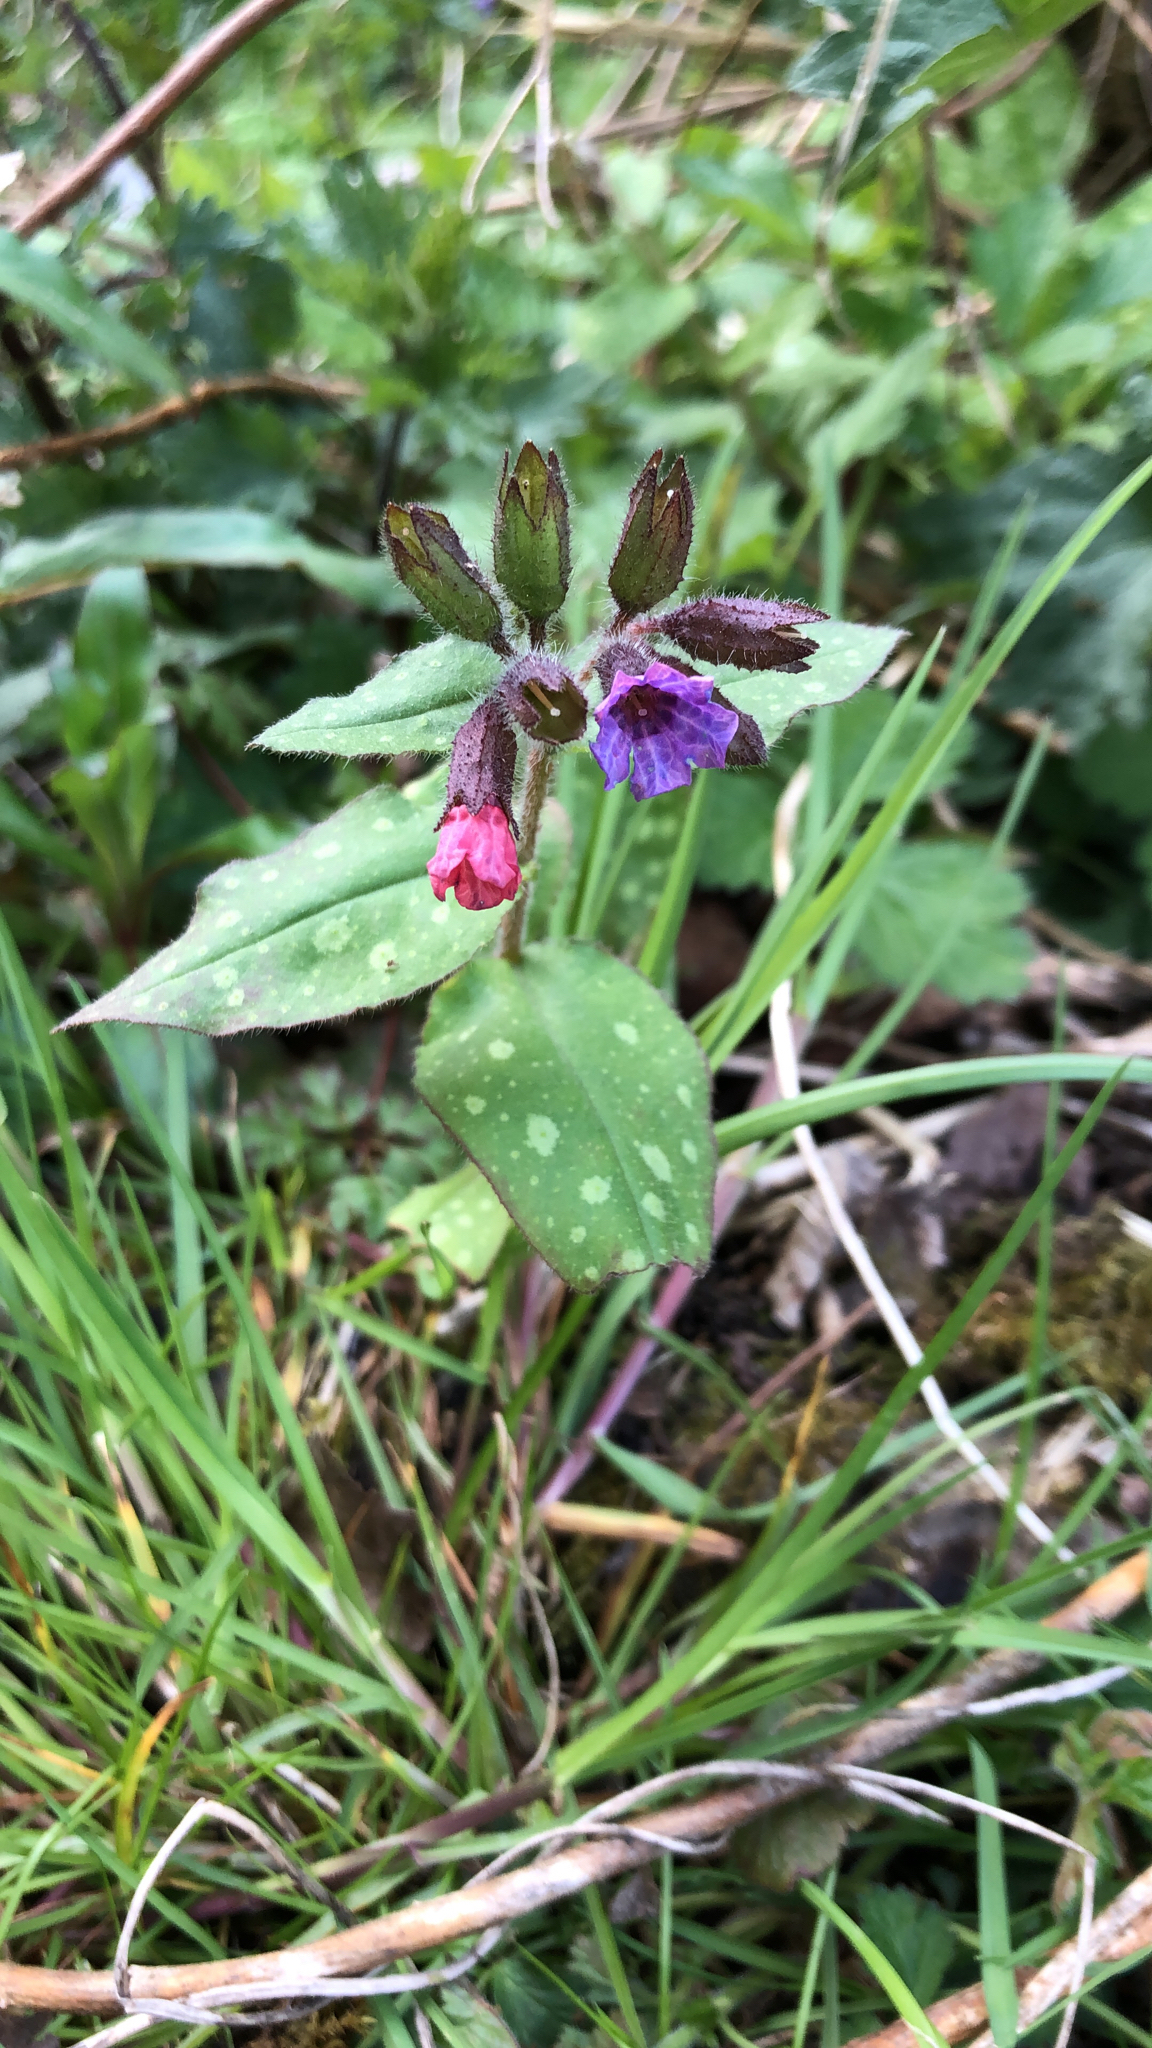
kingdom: Plantae
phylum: Tracheophyta
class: Magnoliopsida
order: Boraginales
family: Boraginaceae
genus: Pulmonaria
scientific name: Pulmonaria officinalis
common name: Lungwort
